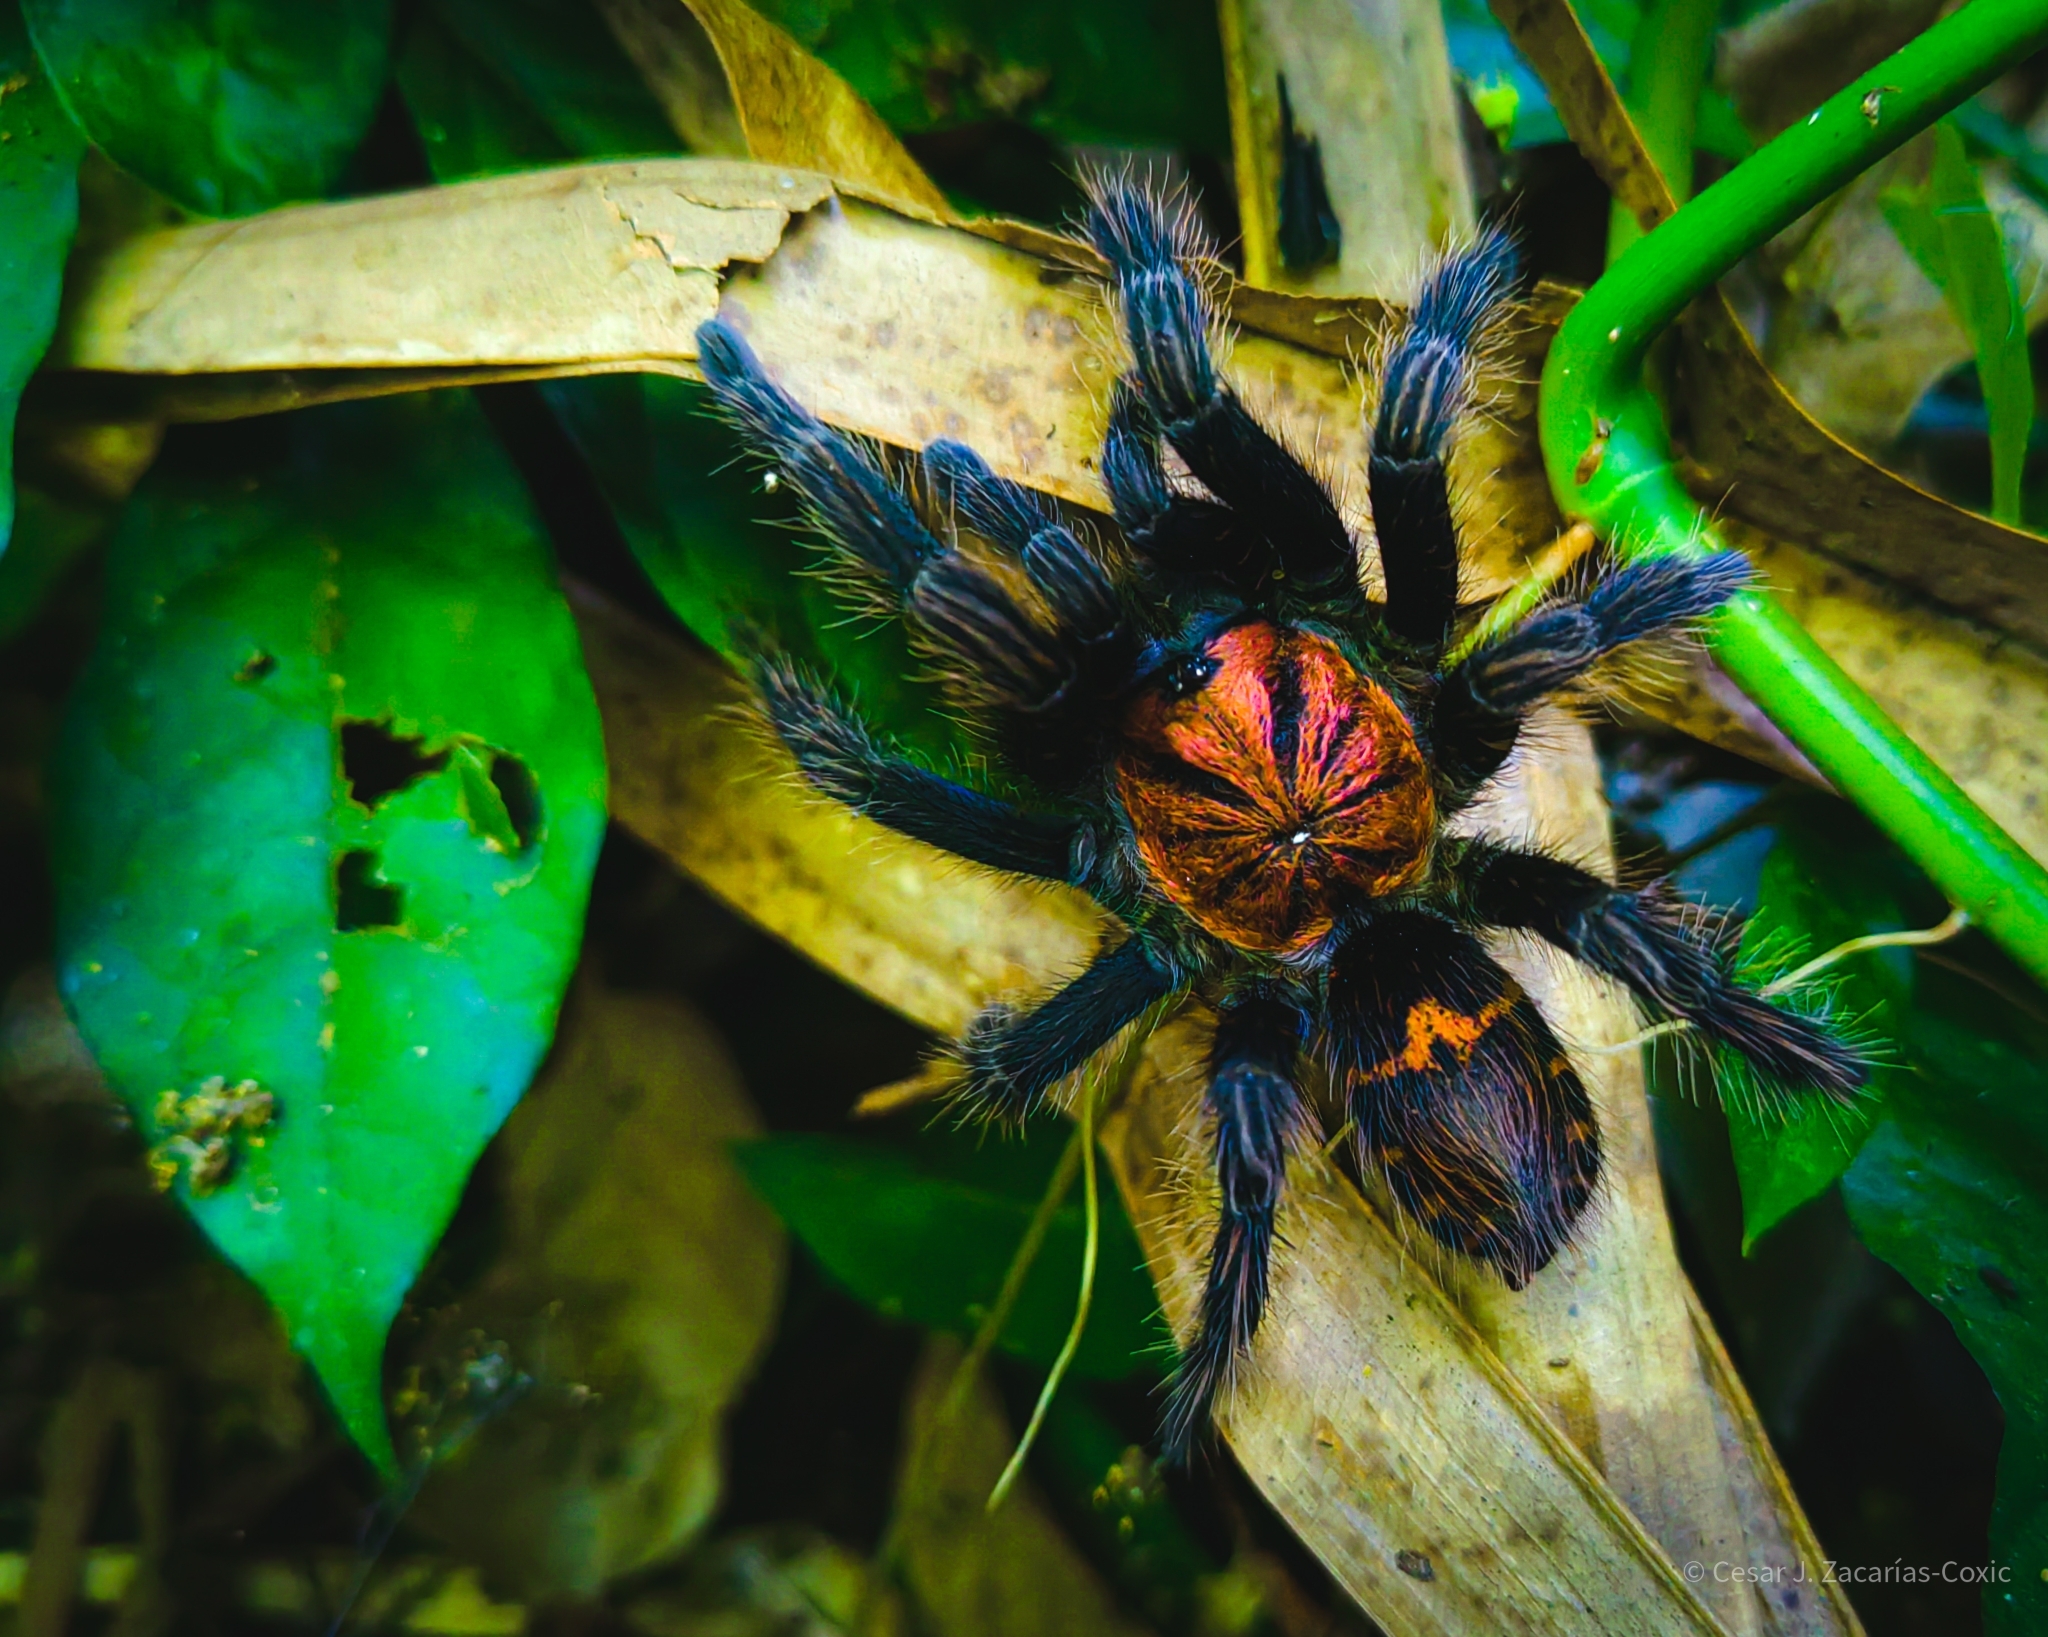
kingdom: Animalia
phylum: Arthropoda
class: Arachnida
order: Araneae
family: Theraphosidae
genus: Davus
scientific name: Davus pentaloris
